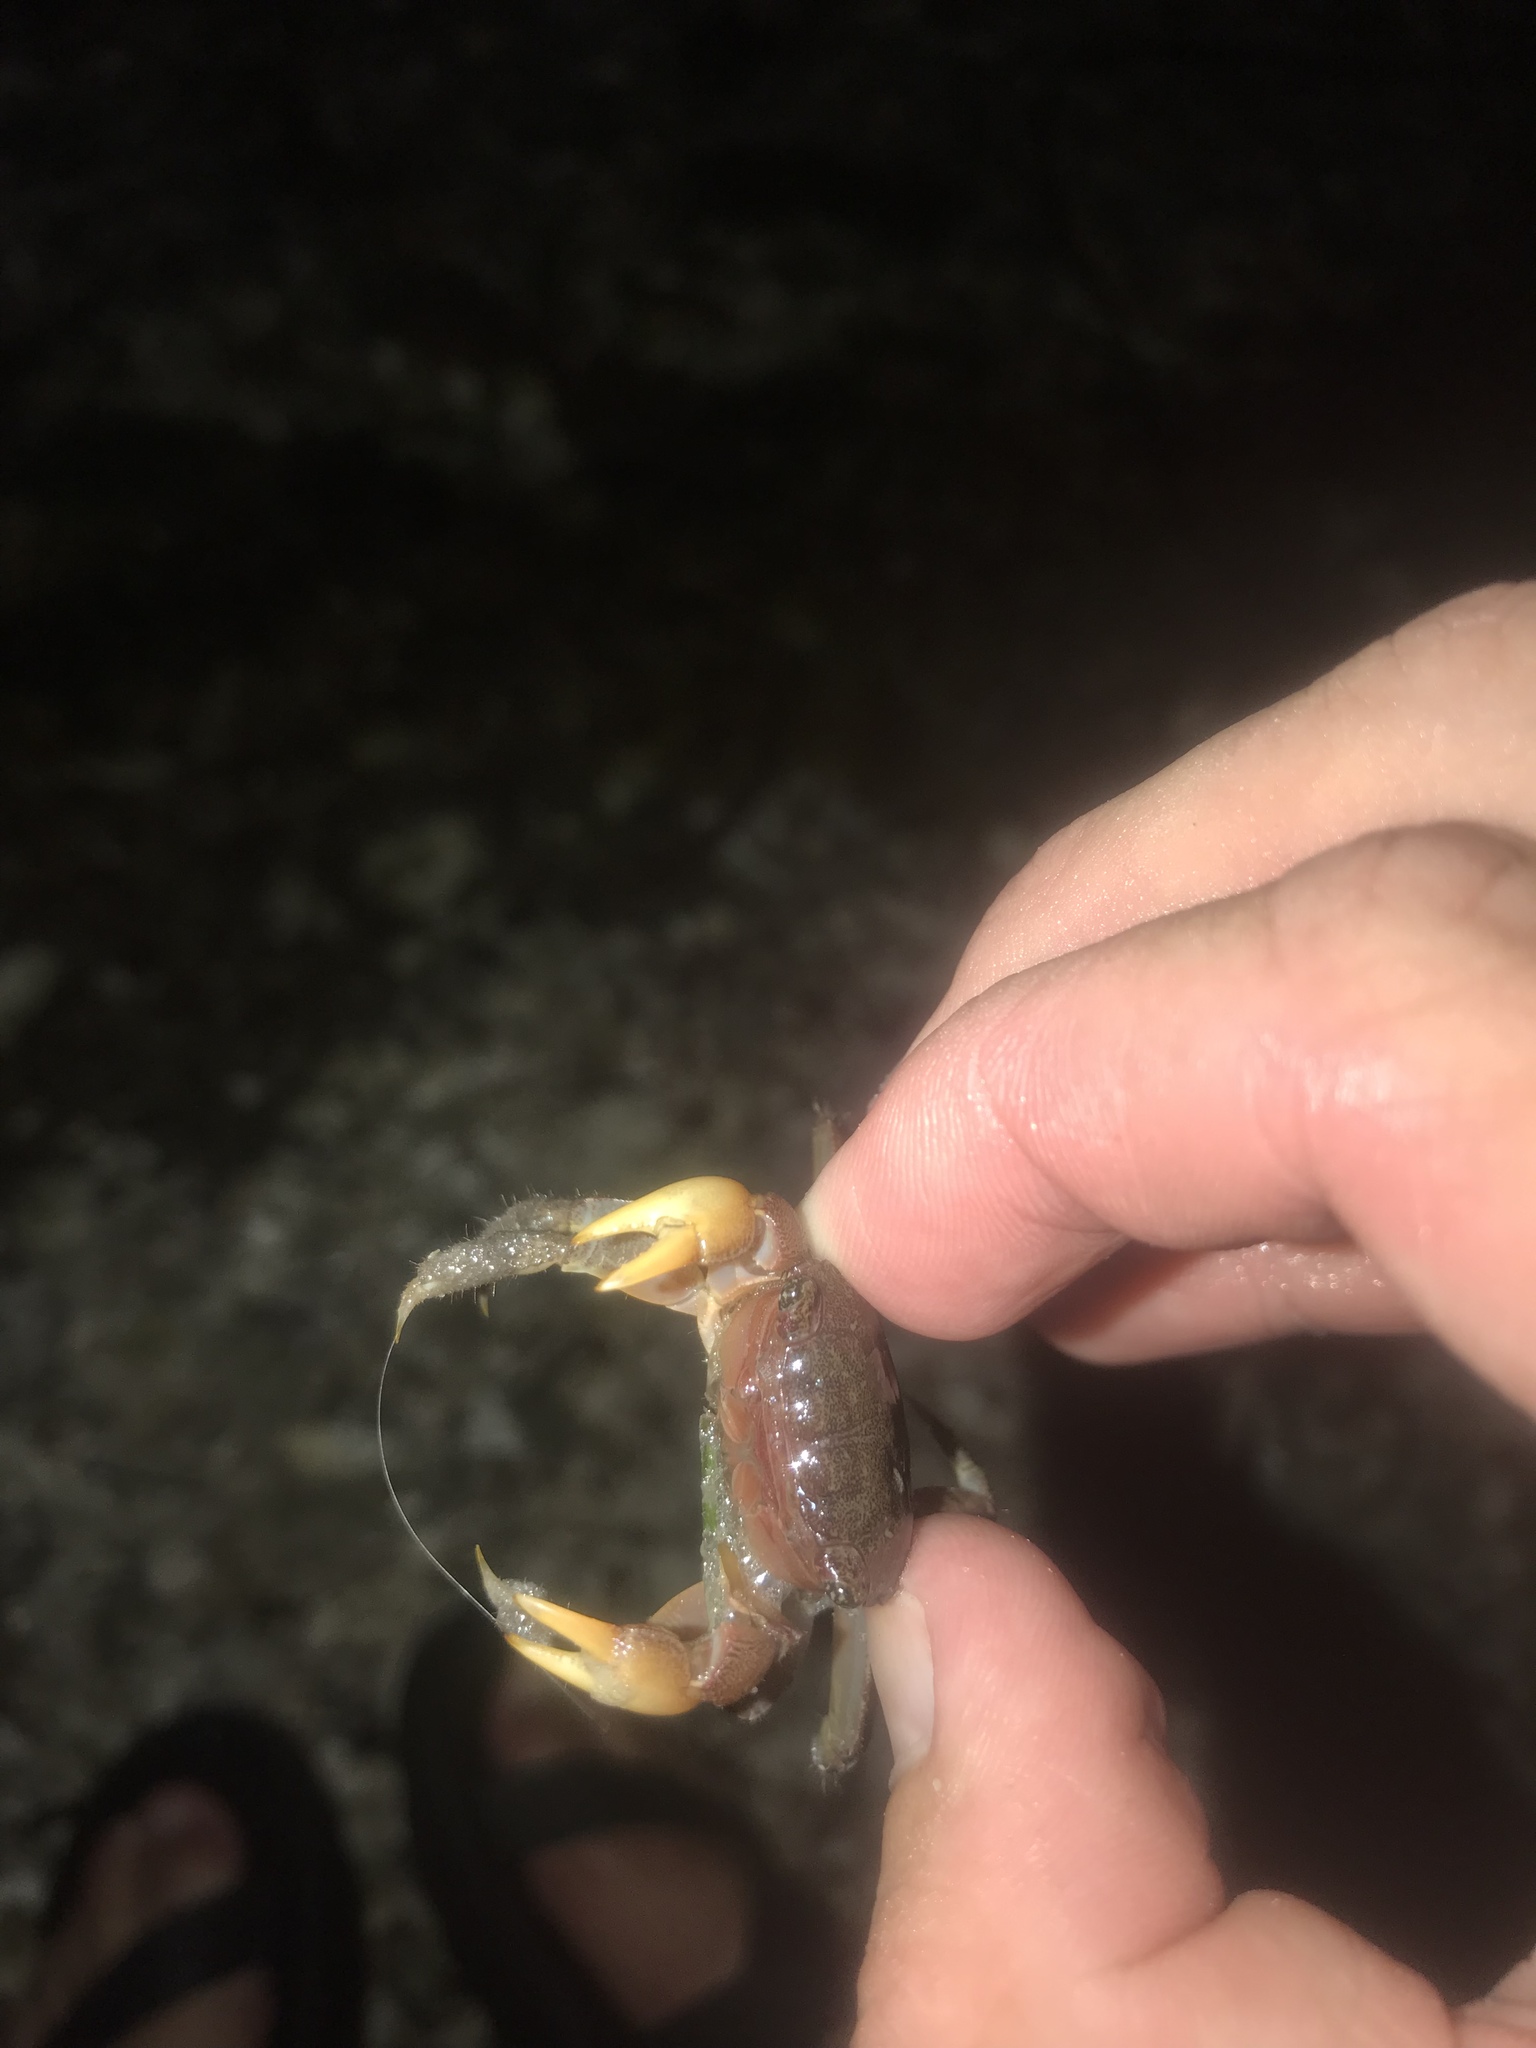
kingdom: Animalia
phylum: Arthropoda
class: Malacostraca
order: Decapoda
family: Sesarmidae
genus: Sesarma
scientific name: Sesarma reticulatum
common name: Heavy marsh crab
